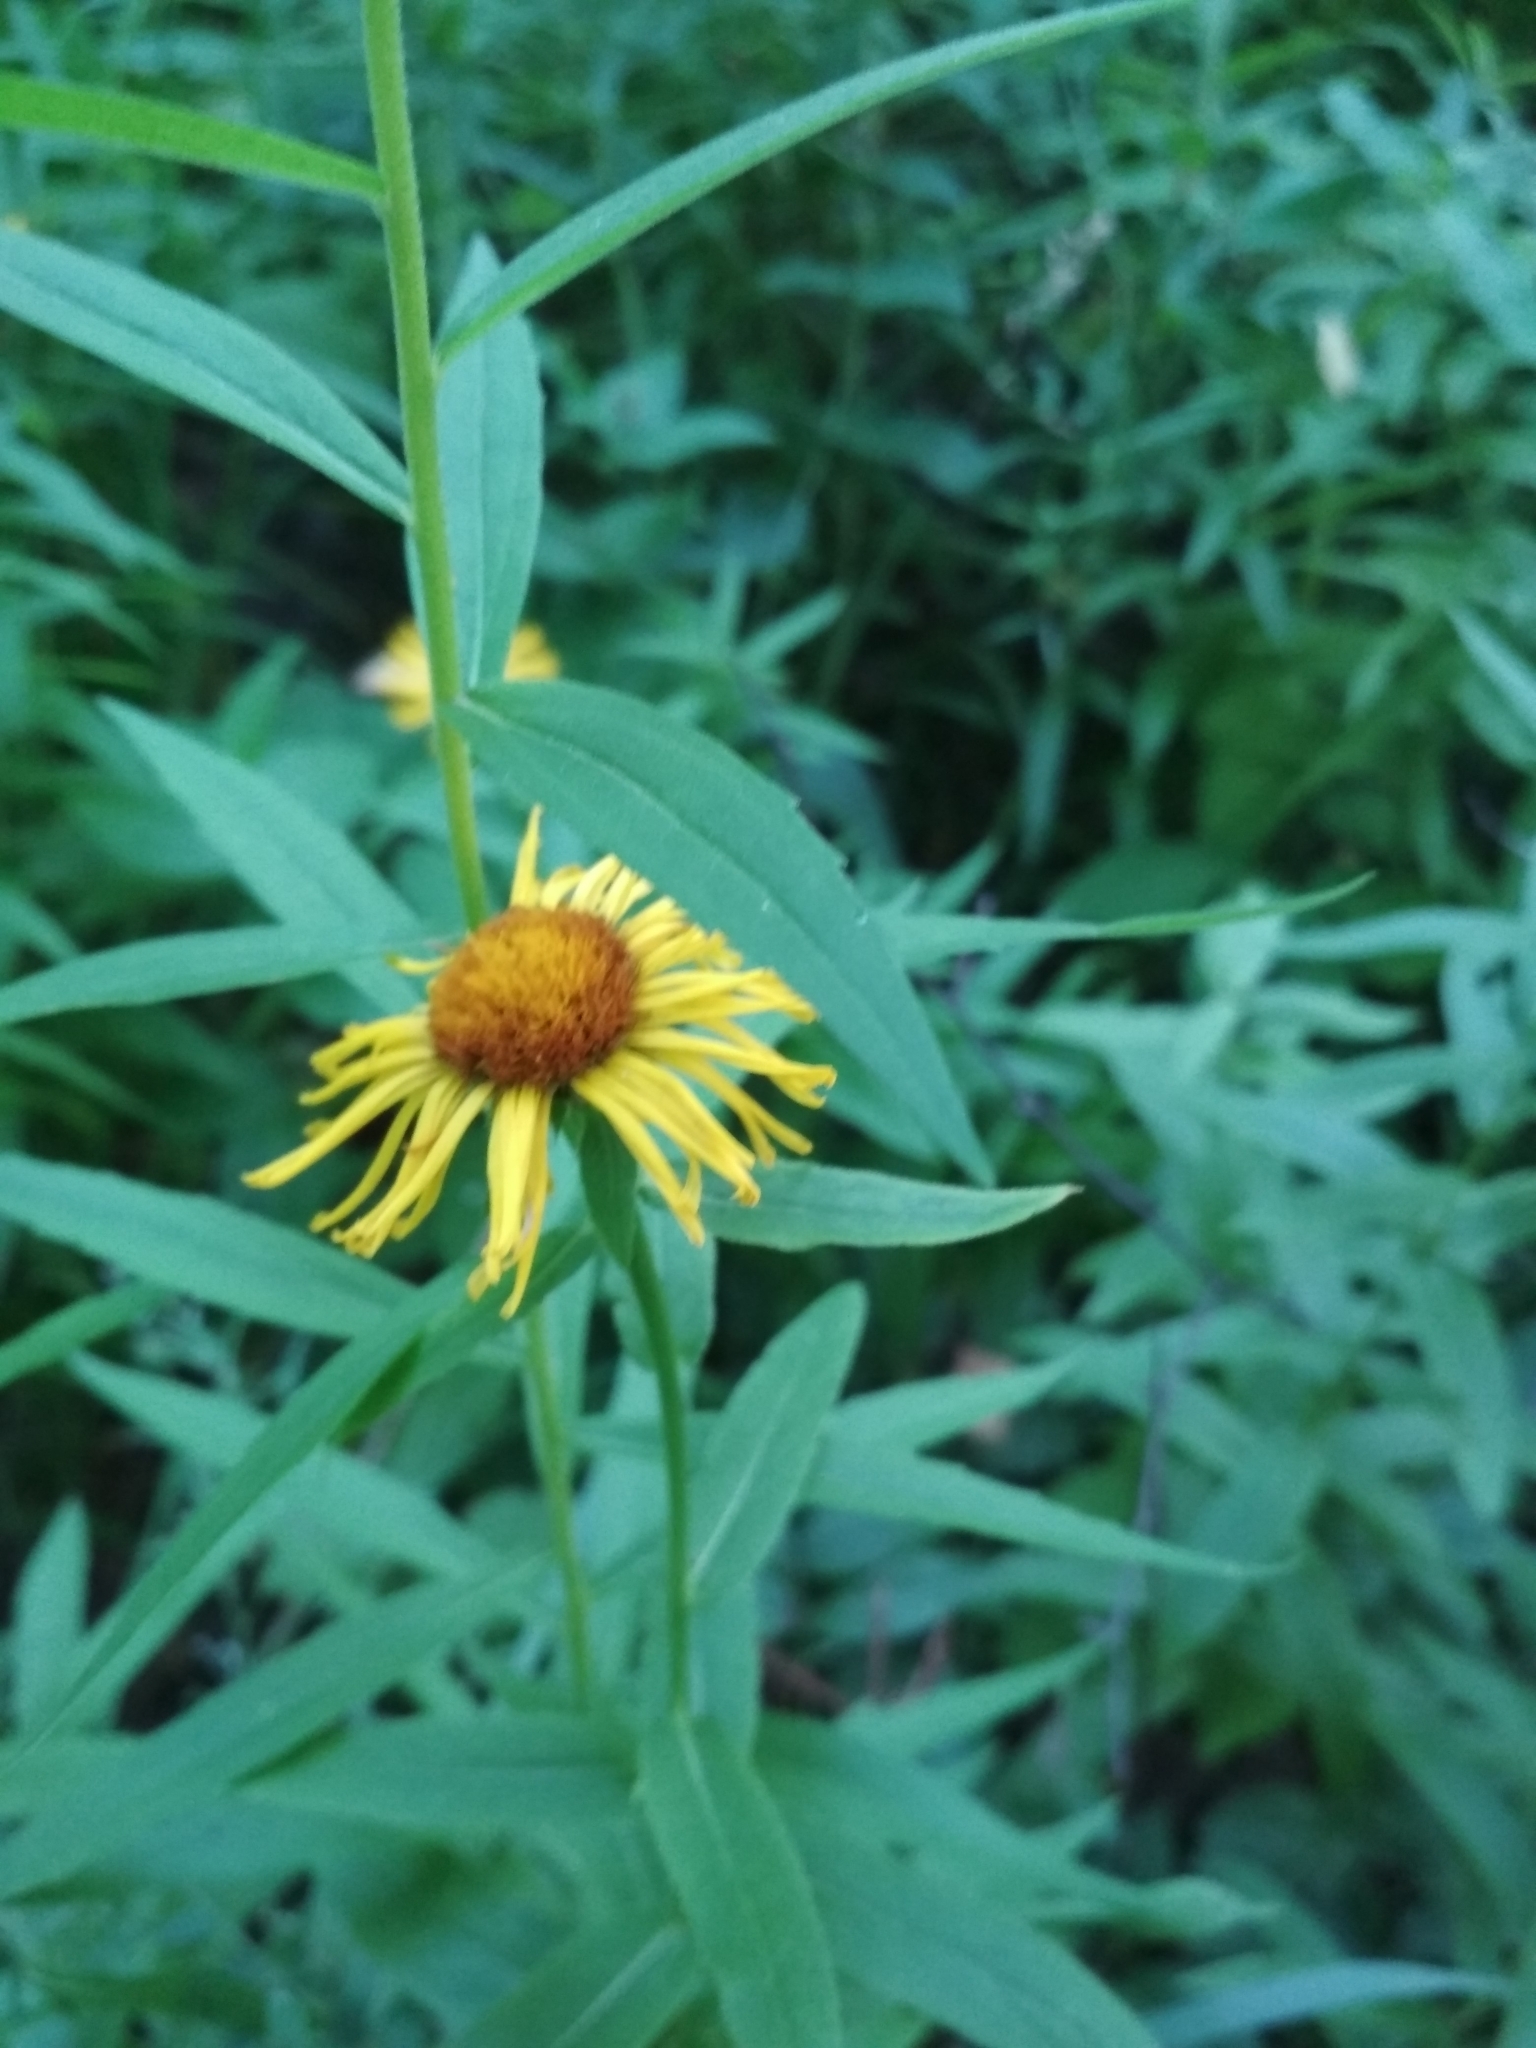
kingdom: Plantae
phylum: Tracheophyta
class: Magnoliopsida
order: Asterales
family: Asteraceae
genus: Pentanema
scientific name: Pentanema salicinum
